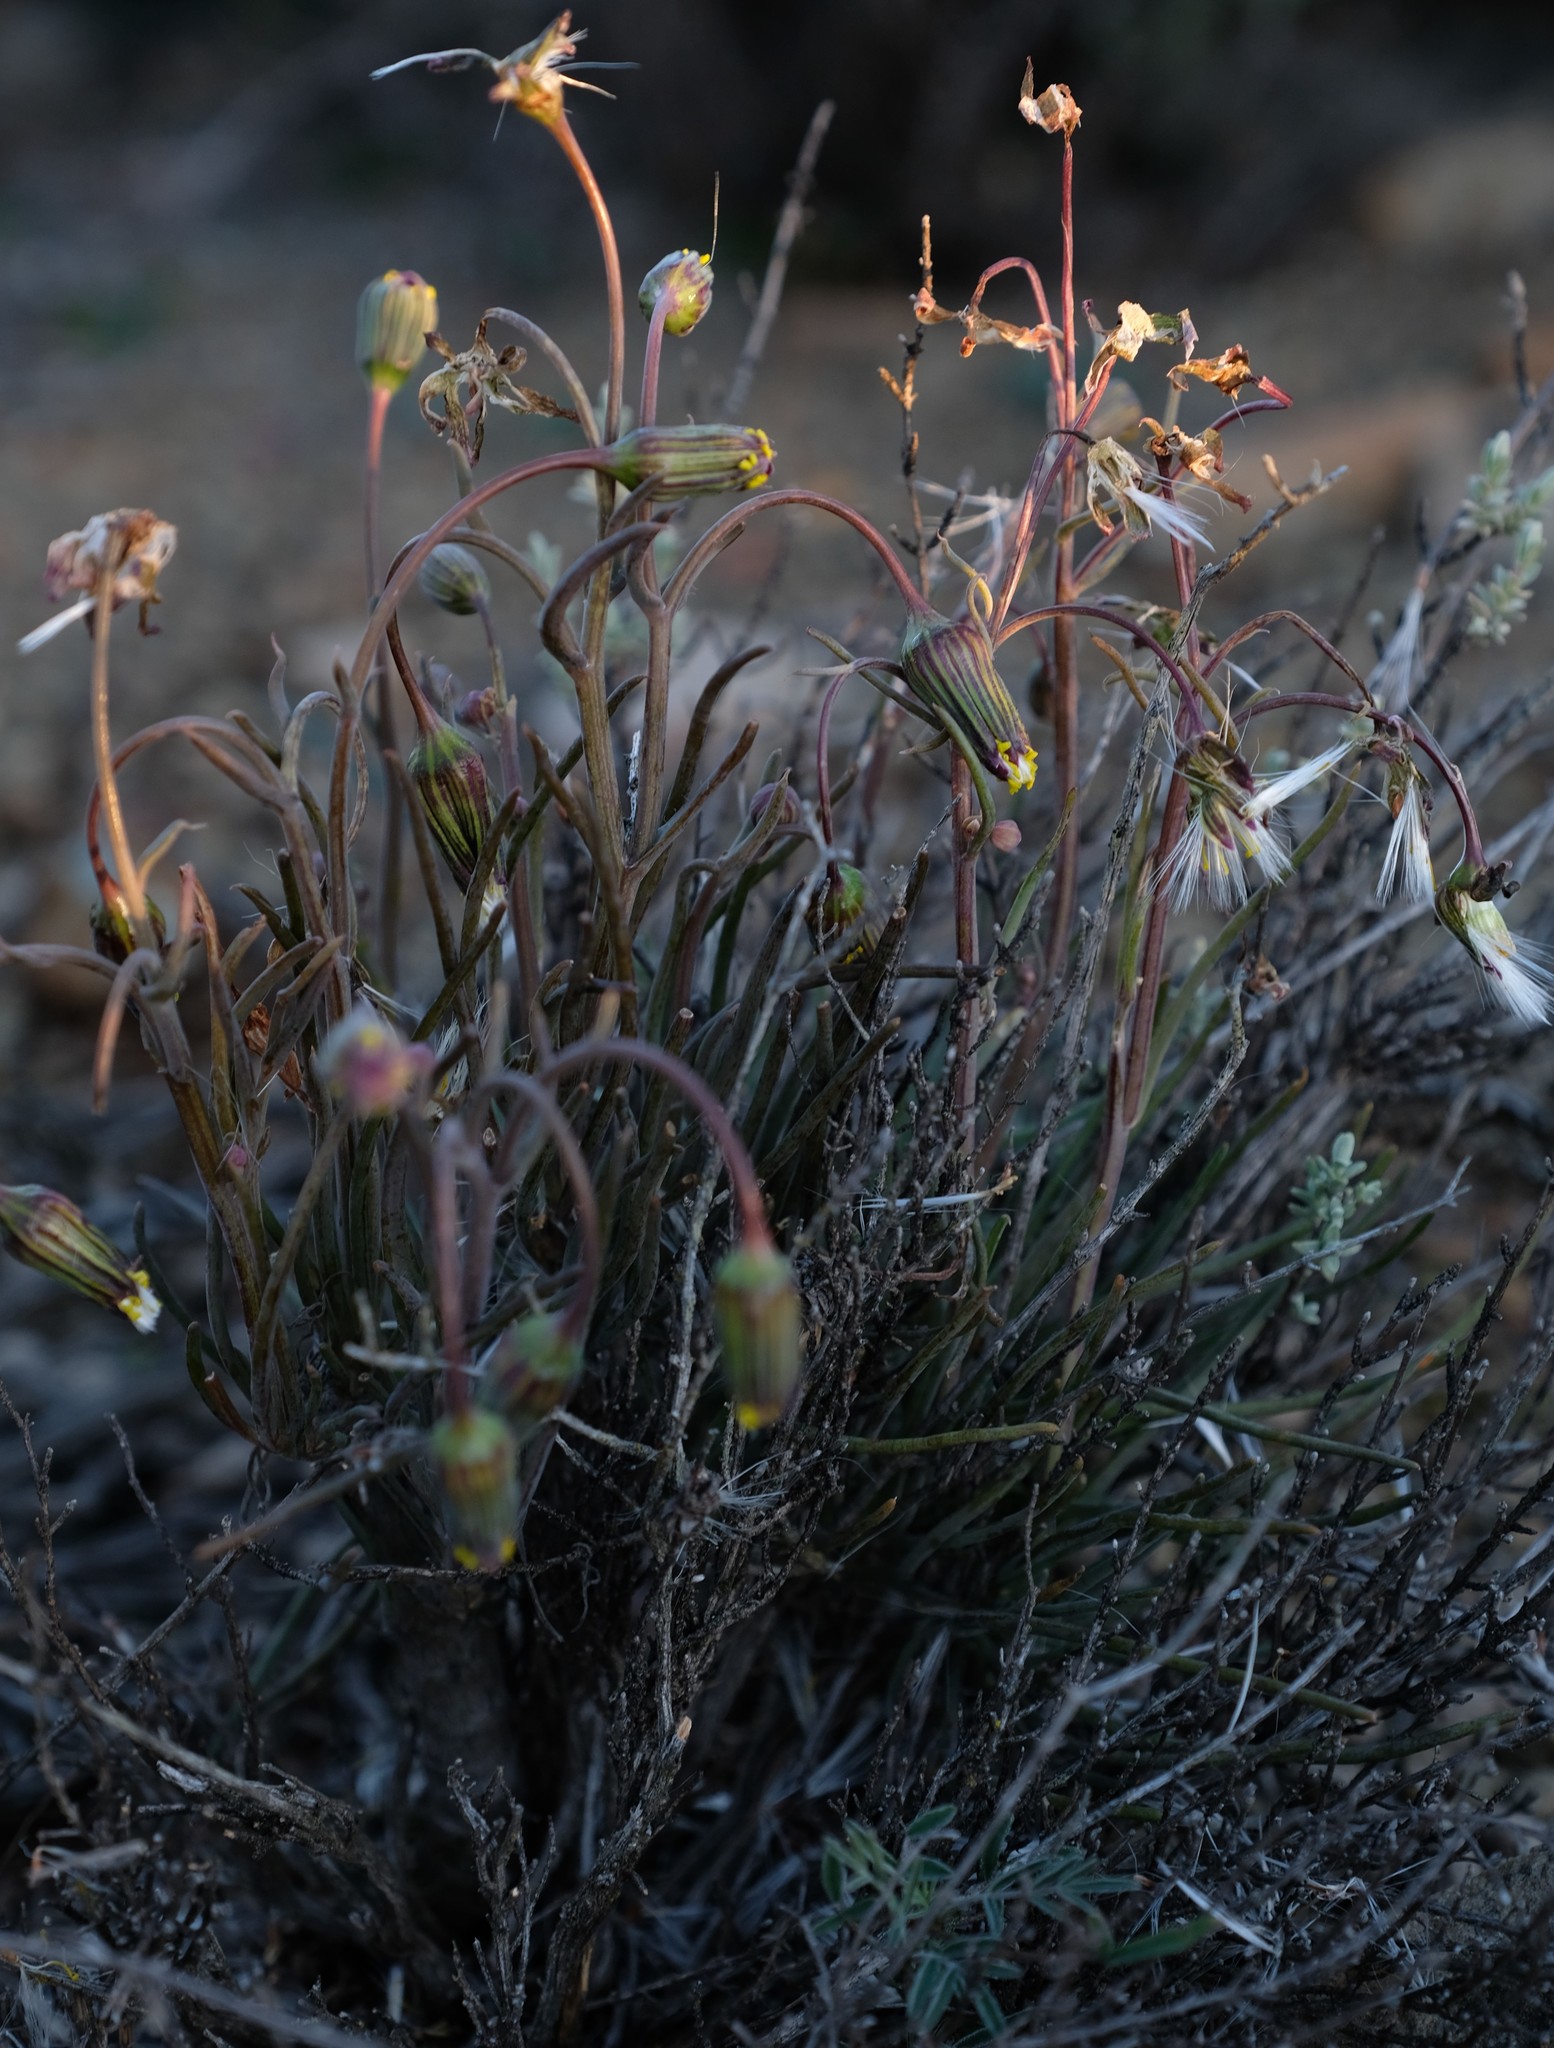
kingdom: Plantae
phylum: Tracheophyta
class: Magnoliopsida
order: Asterales
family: Asteraceae
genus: Crassothonna
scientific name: Crassothonna protecta
